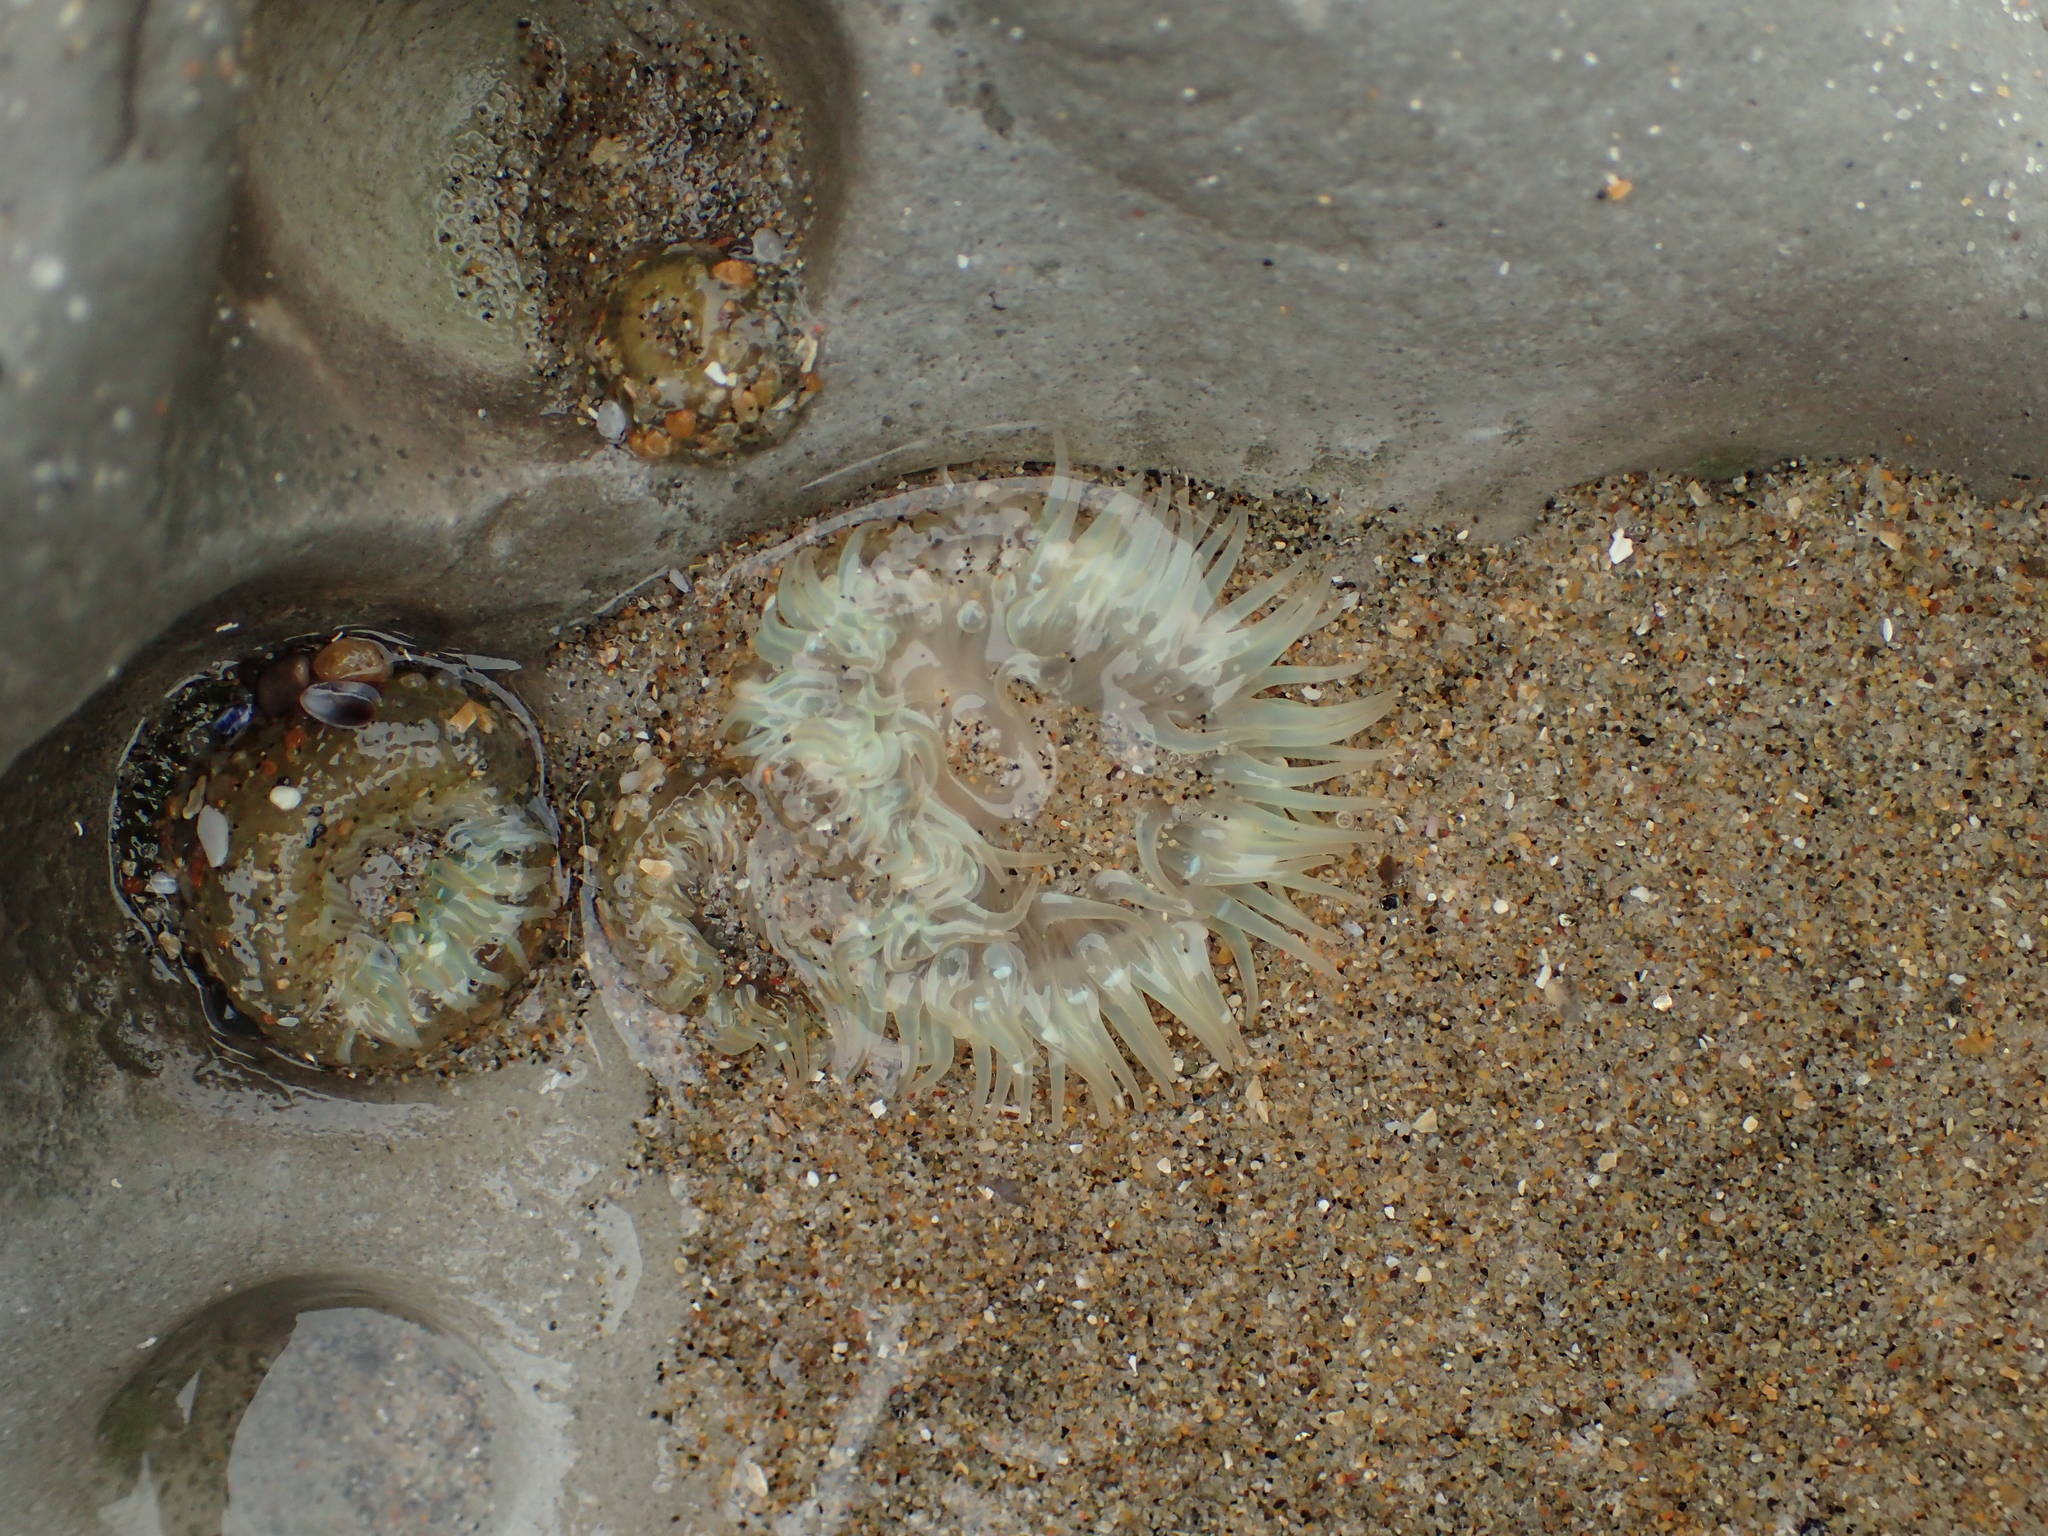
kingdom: Animalia
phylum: Cnidaria
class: Anthozoa
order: Actiniaria
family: Actiniidae
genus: Anthopleura
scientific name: Anthopleura elegantissima
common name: Clonal anemone
